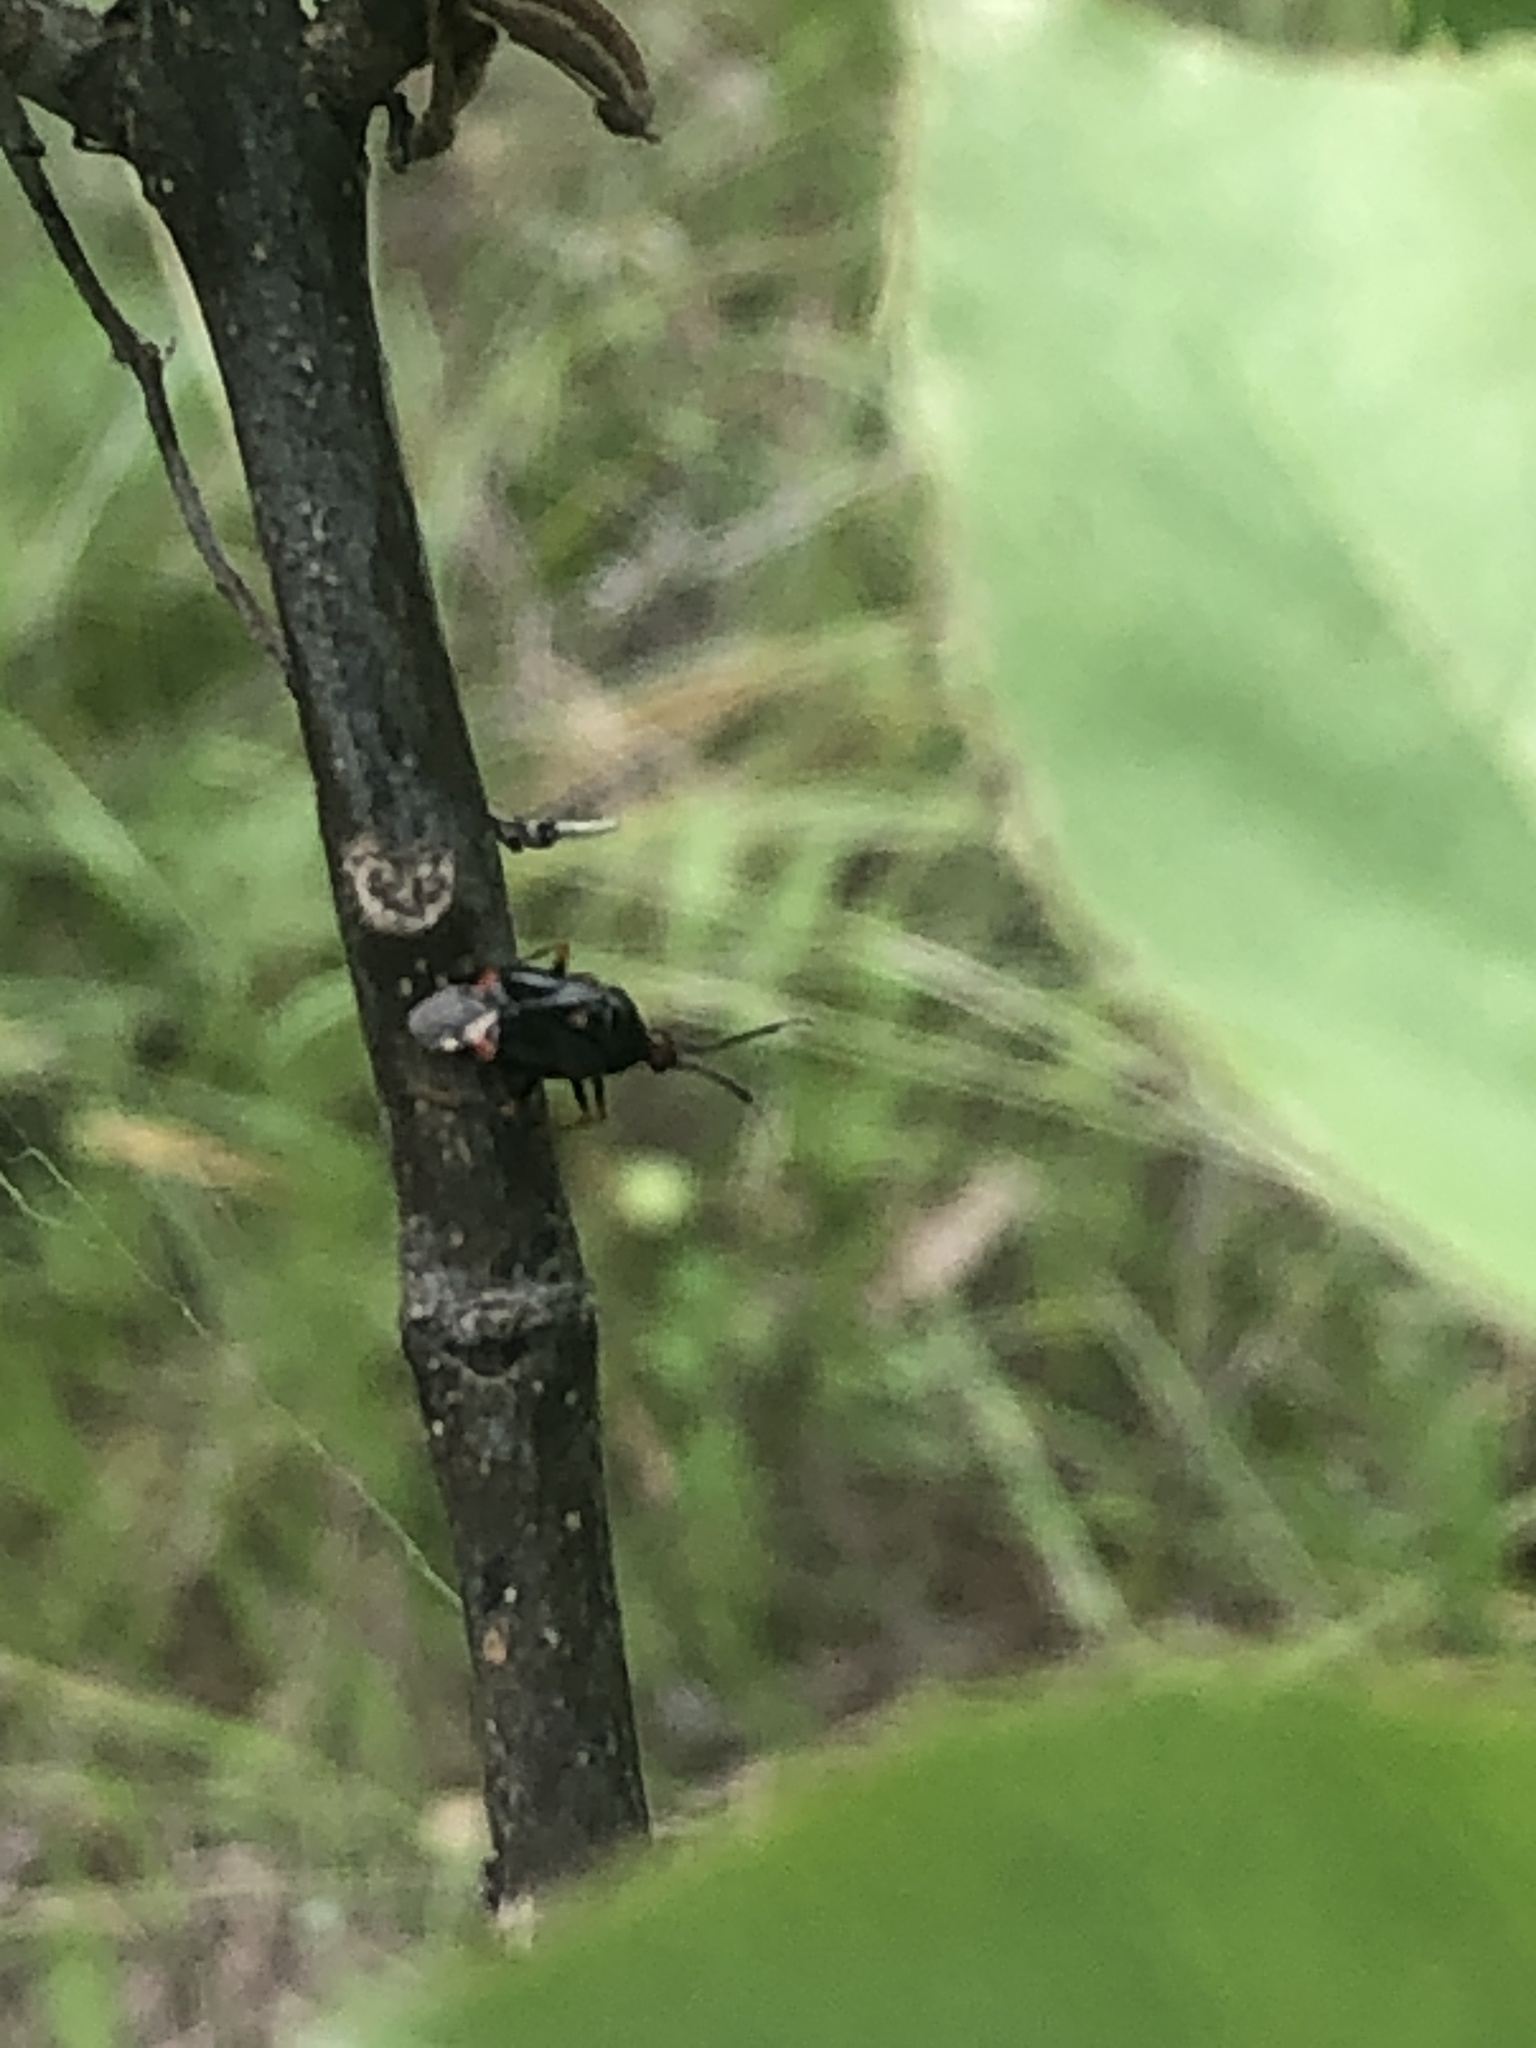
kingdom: Animalia
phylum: Arthropoda
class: Insecta
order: Hemiptera
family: Miridae
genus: Deraeocoris
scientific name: Deraeocoris ruber
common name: Plant bug
